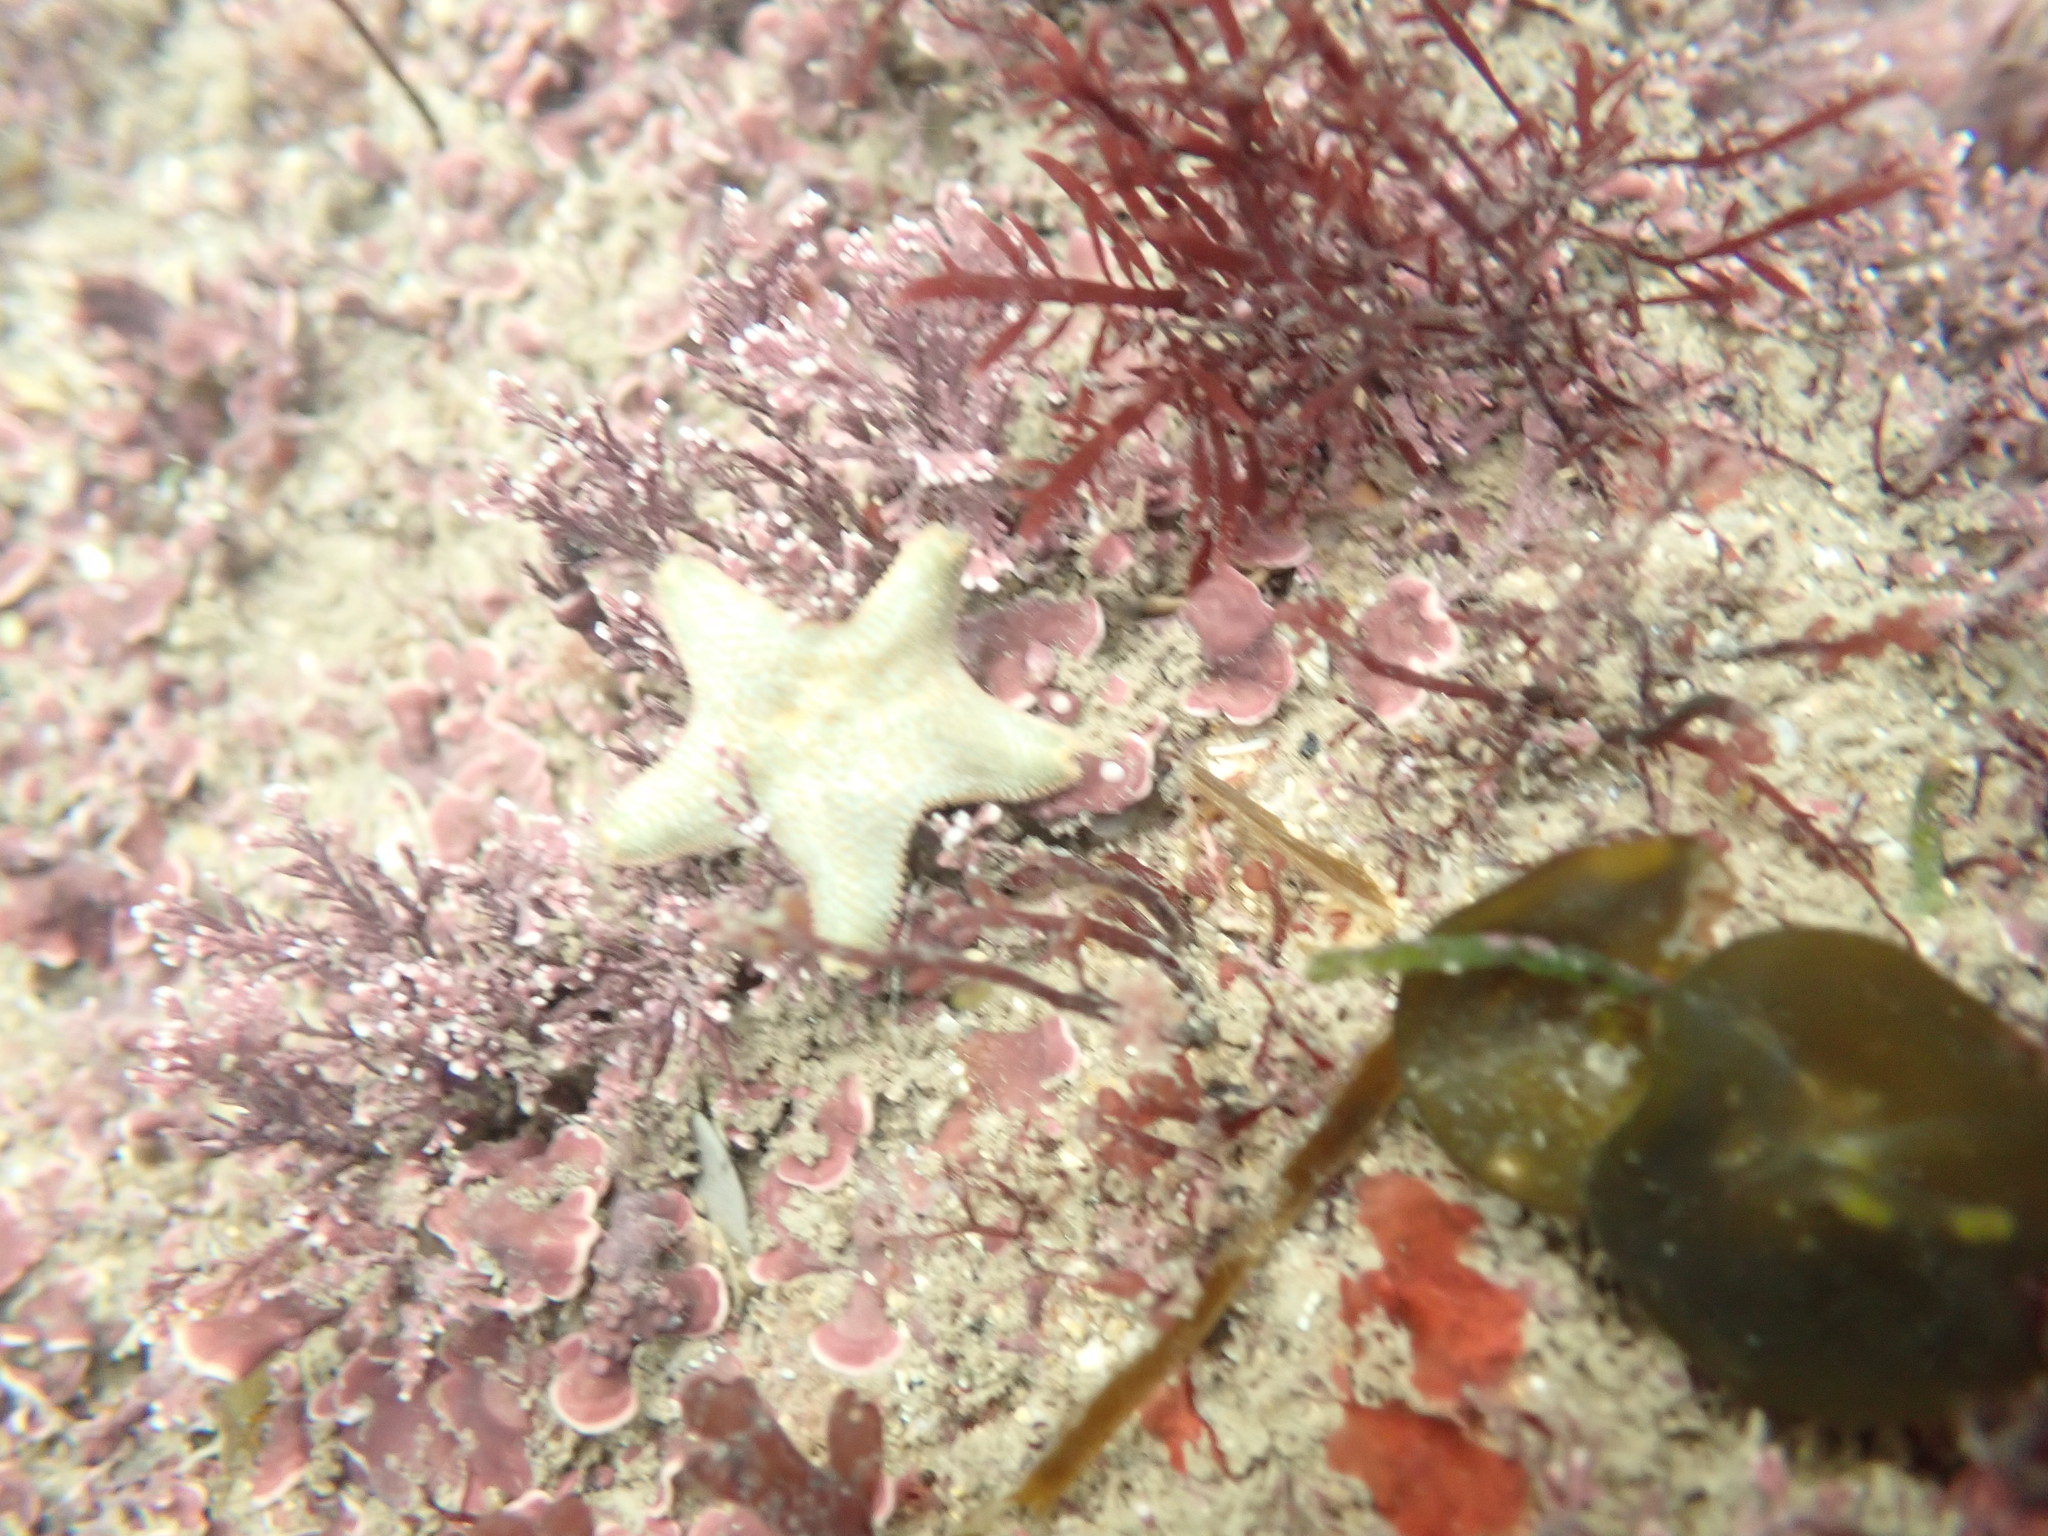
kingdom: Animalia
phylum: Echinodermata
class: Asteroidea
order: Valvatida
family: Asterinidae
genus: Asterina
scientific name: Asterina gibbosa
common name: Cushion star
